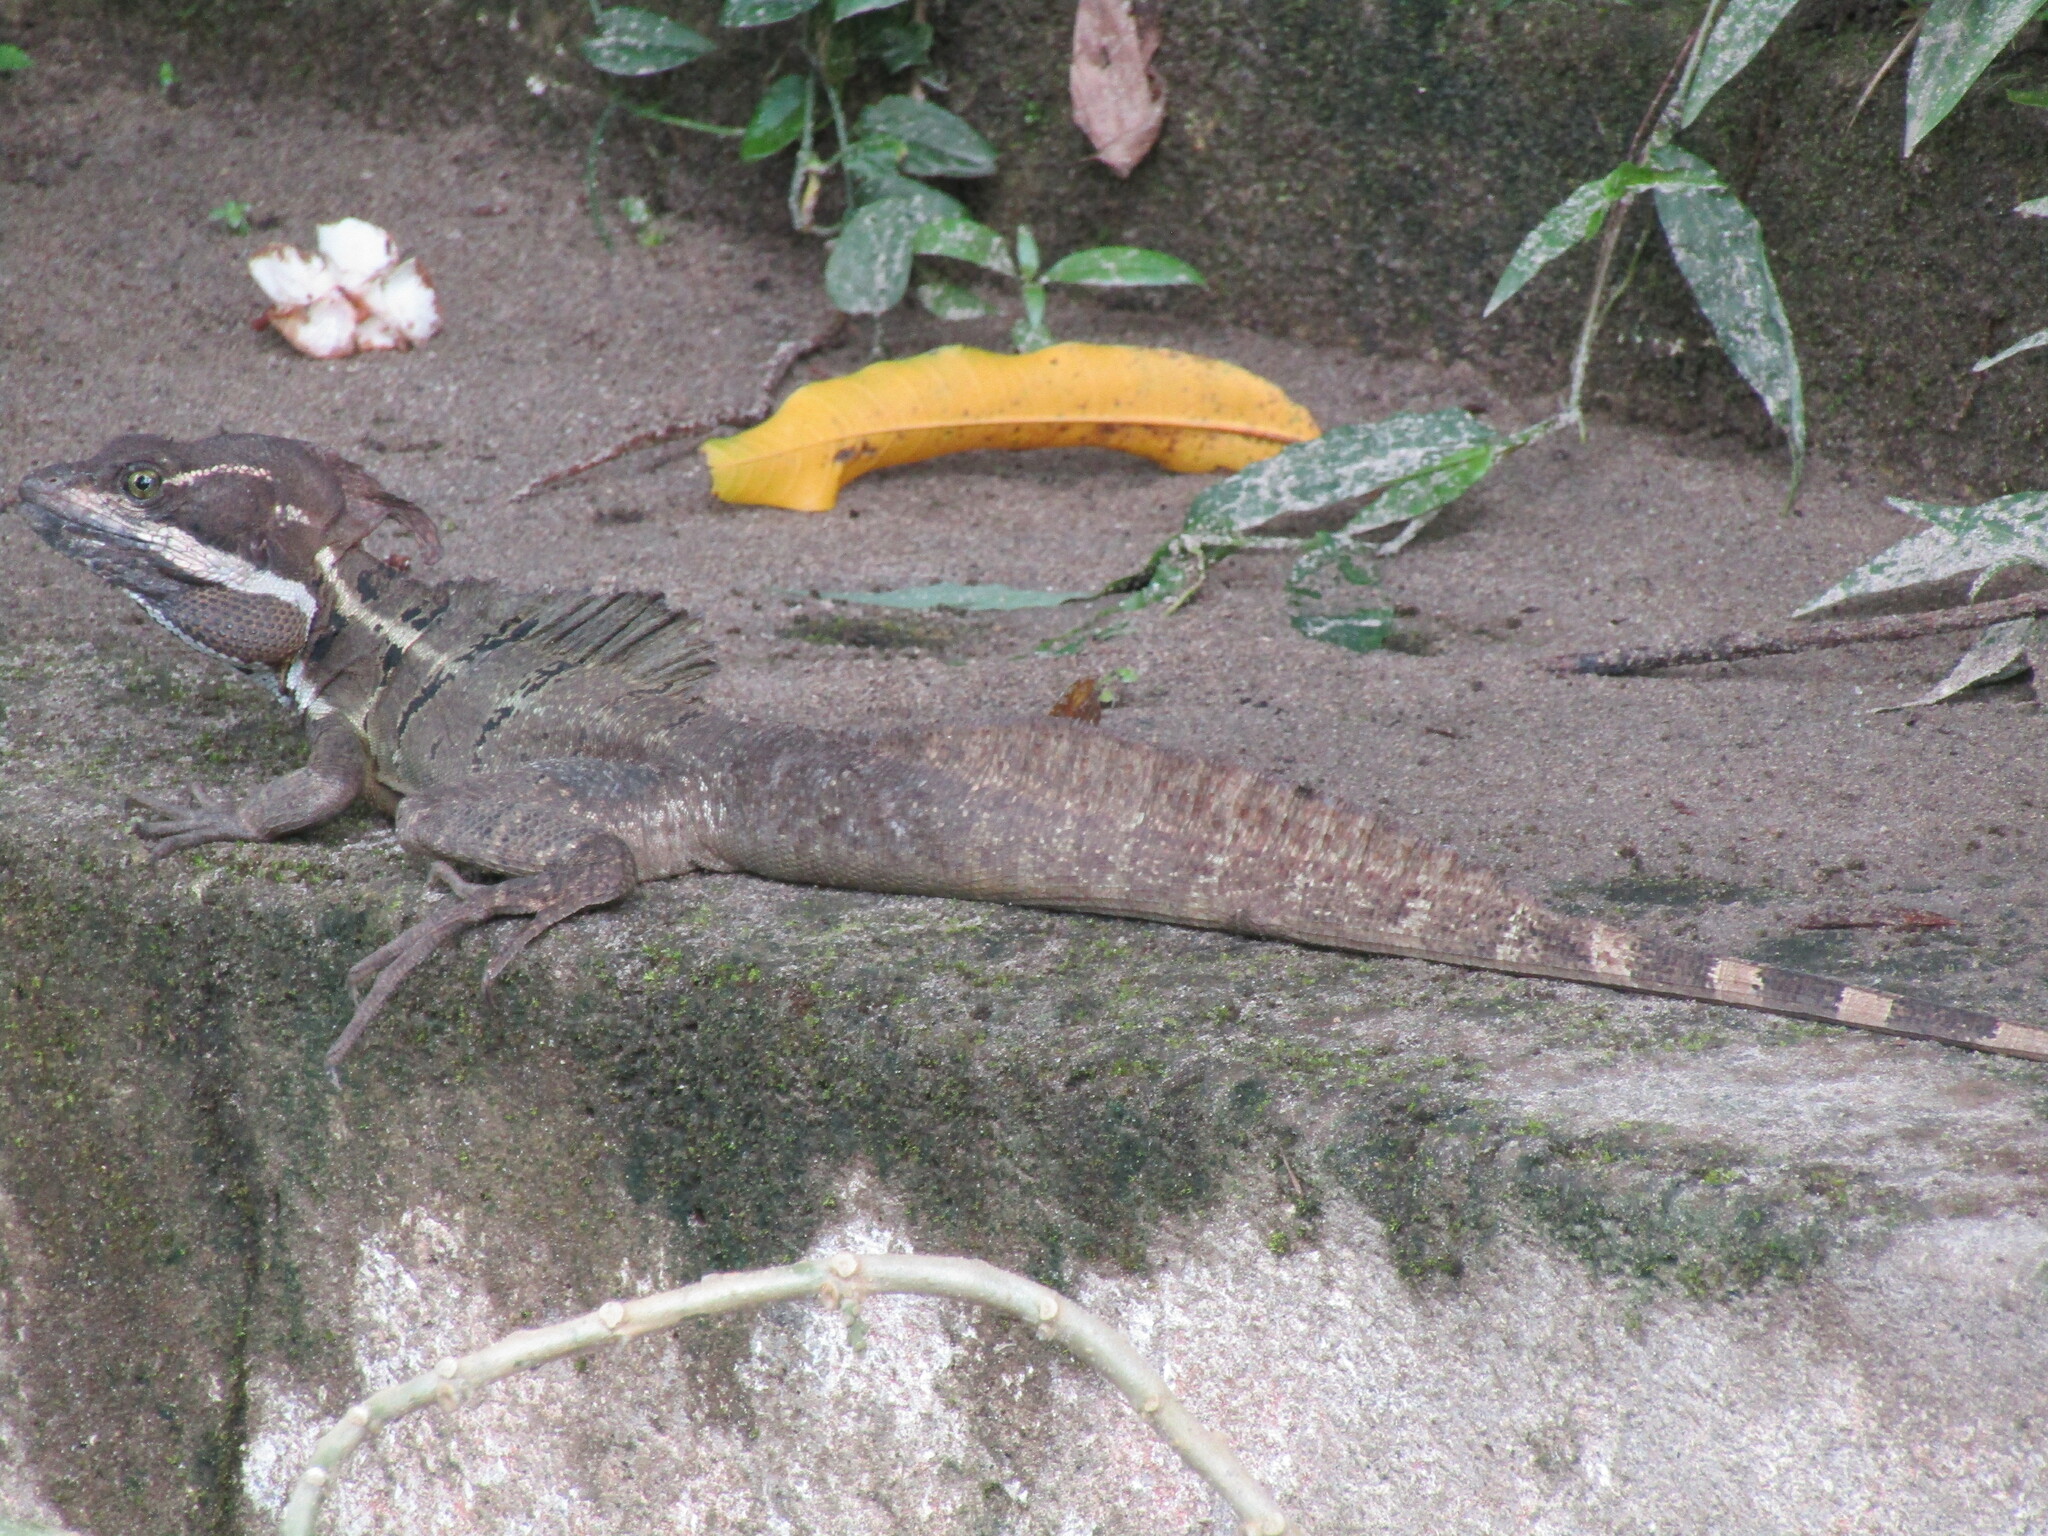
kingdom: Animalia
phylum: Chordata
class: Squamata
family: Corytophanidae
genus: Basiliscus
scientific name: Basiliscus basiliscus
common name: Common basilisk
